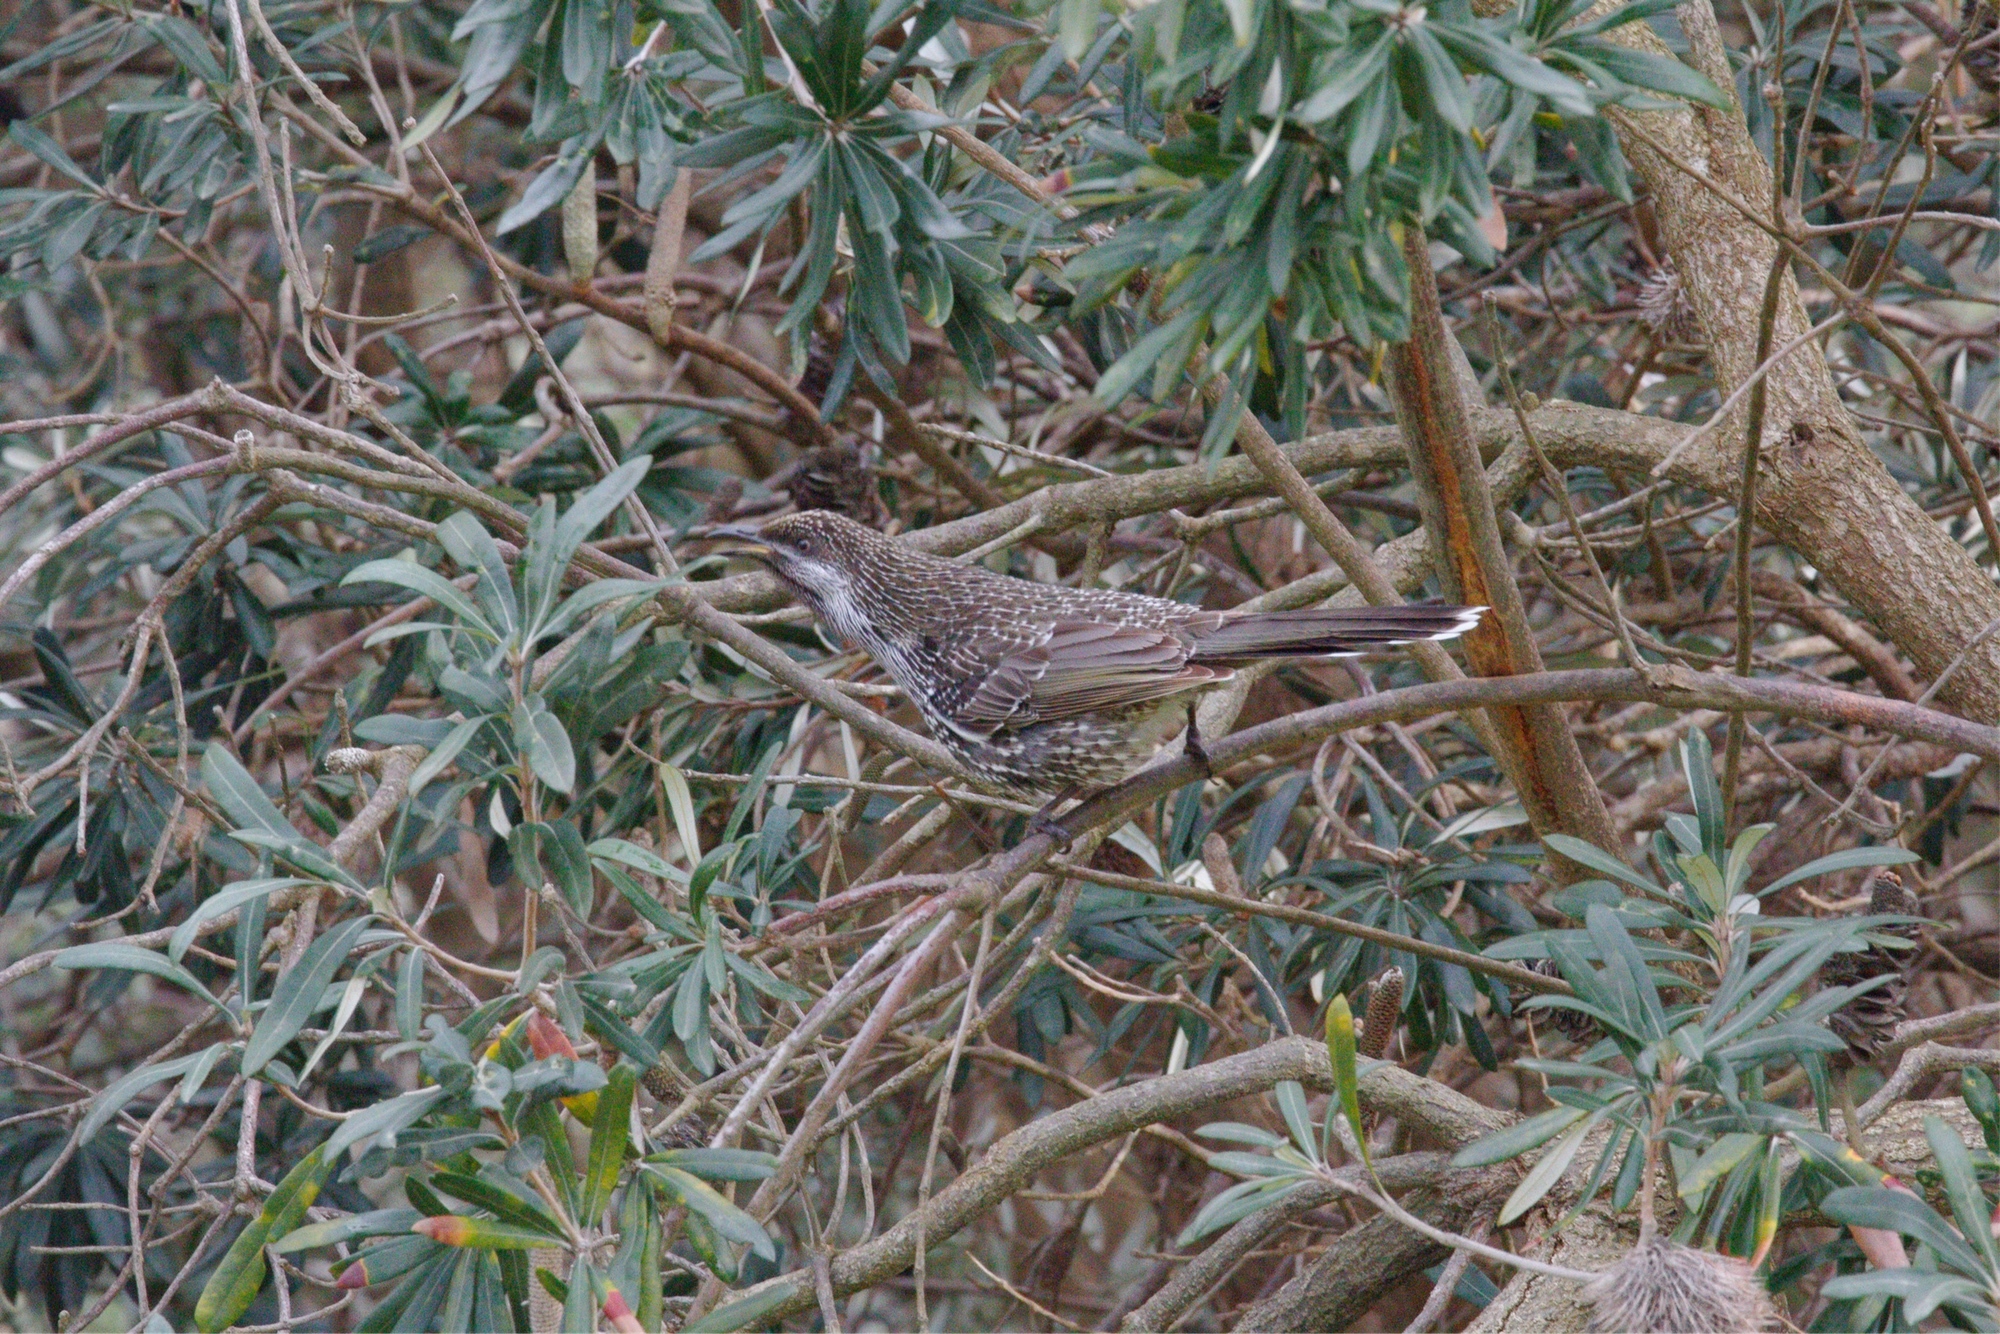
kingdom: Animalia
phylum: Chordata
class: Aves
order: Passeriformes
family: Meliphagidae
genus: Anthochaera
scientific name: Anthochaera chrysoptera
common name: Little wattlebird
